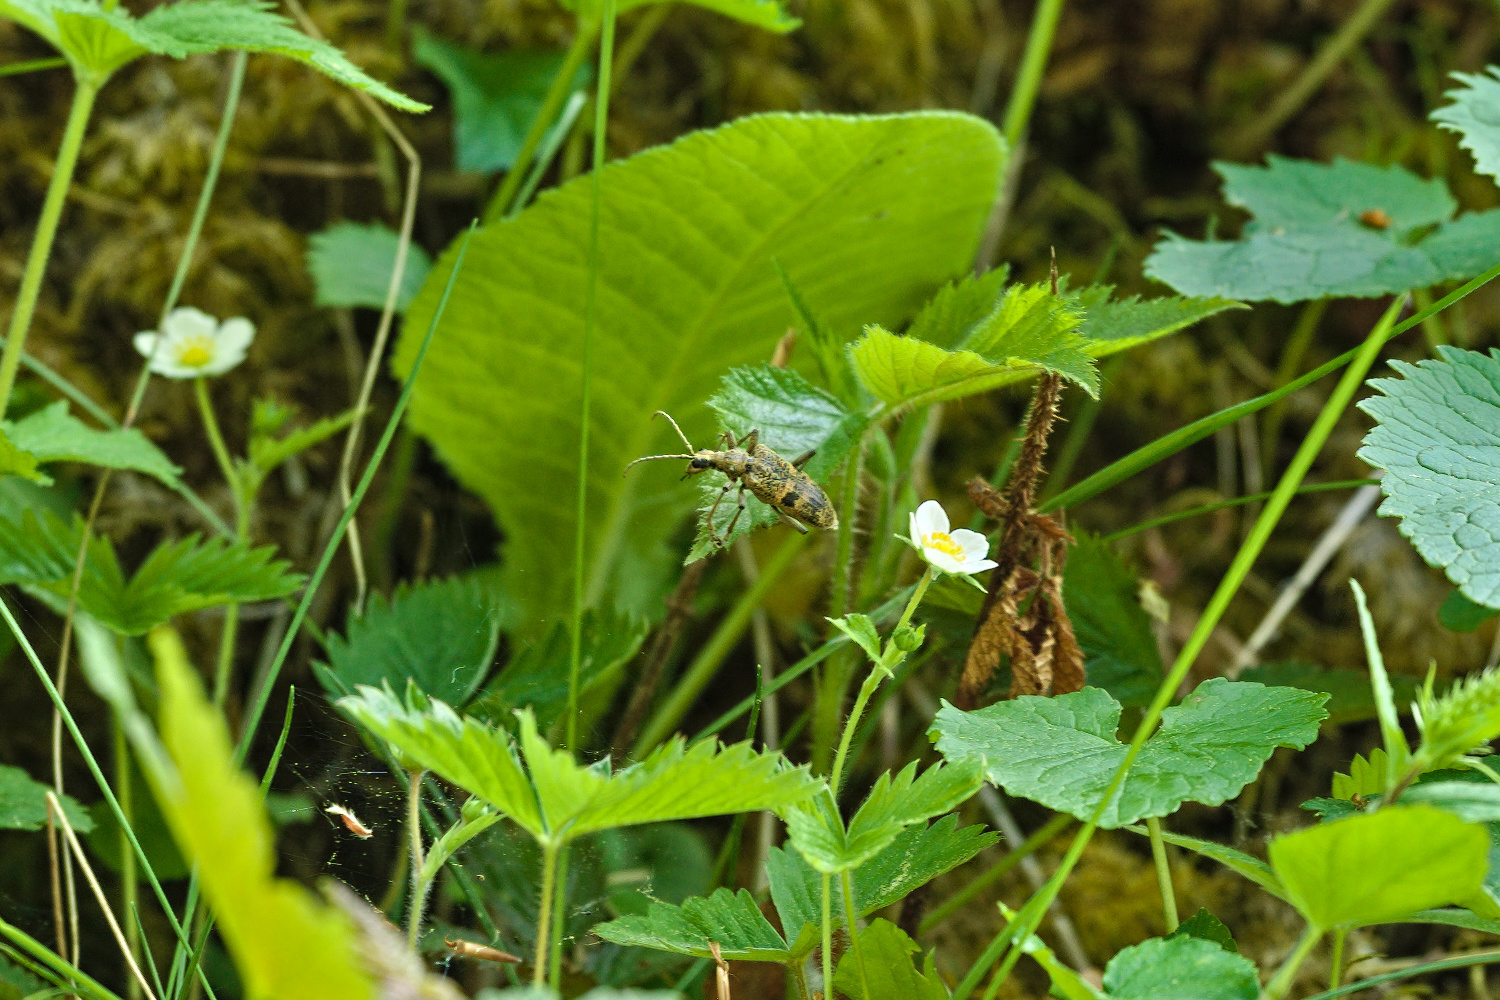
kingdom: Animalia
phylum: Arthropoda
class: Insecta
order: Coleoptera
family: Cerambycidae
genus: Rhagium
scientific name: Rhagium mordax
